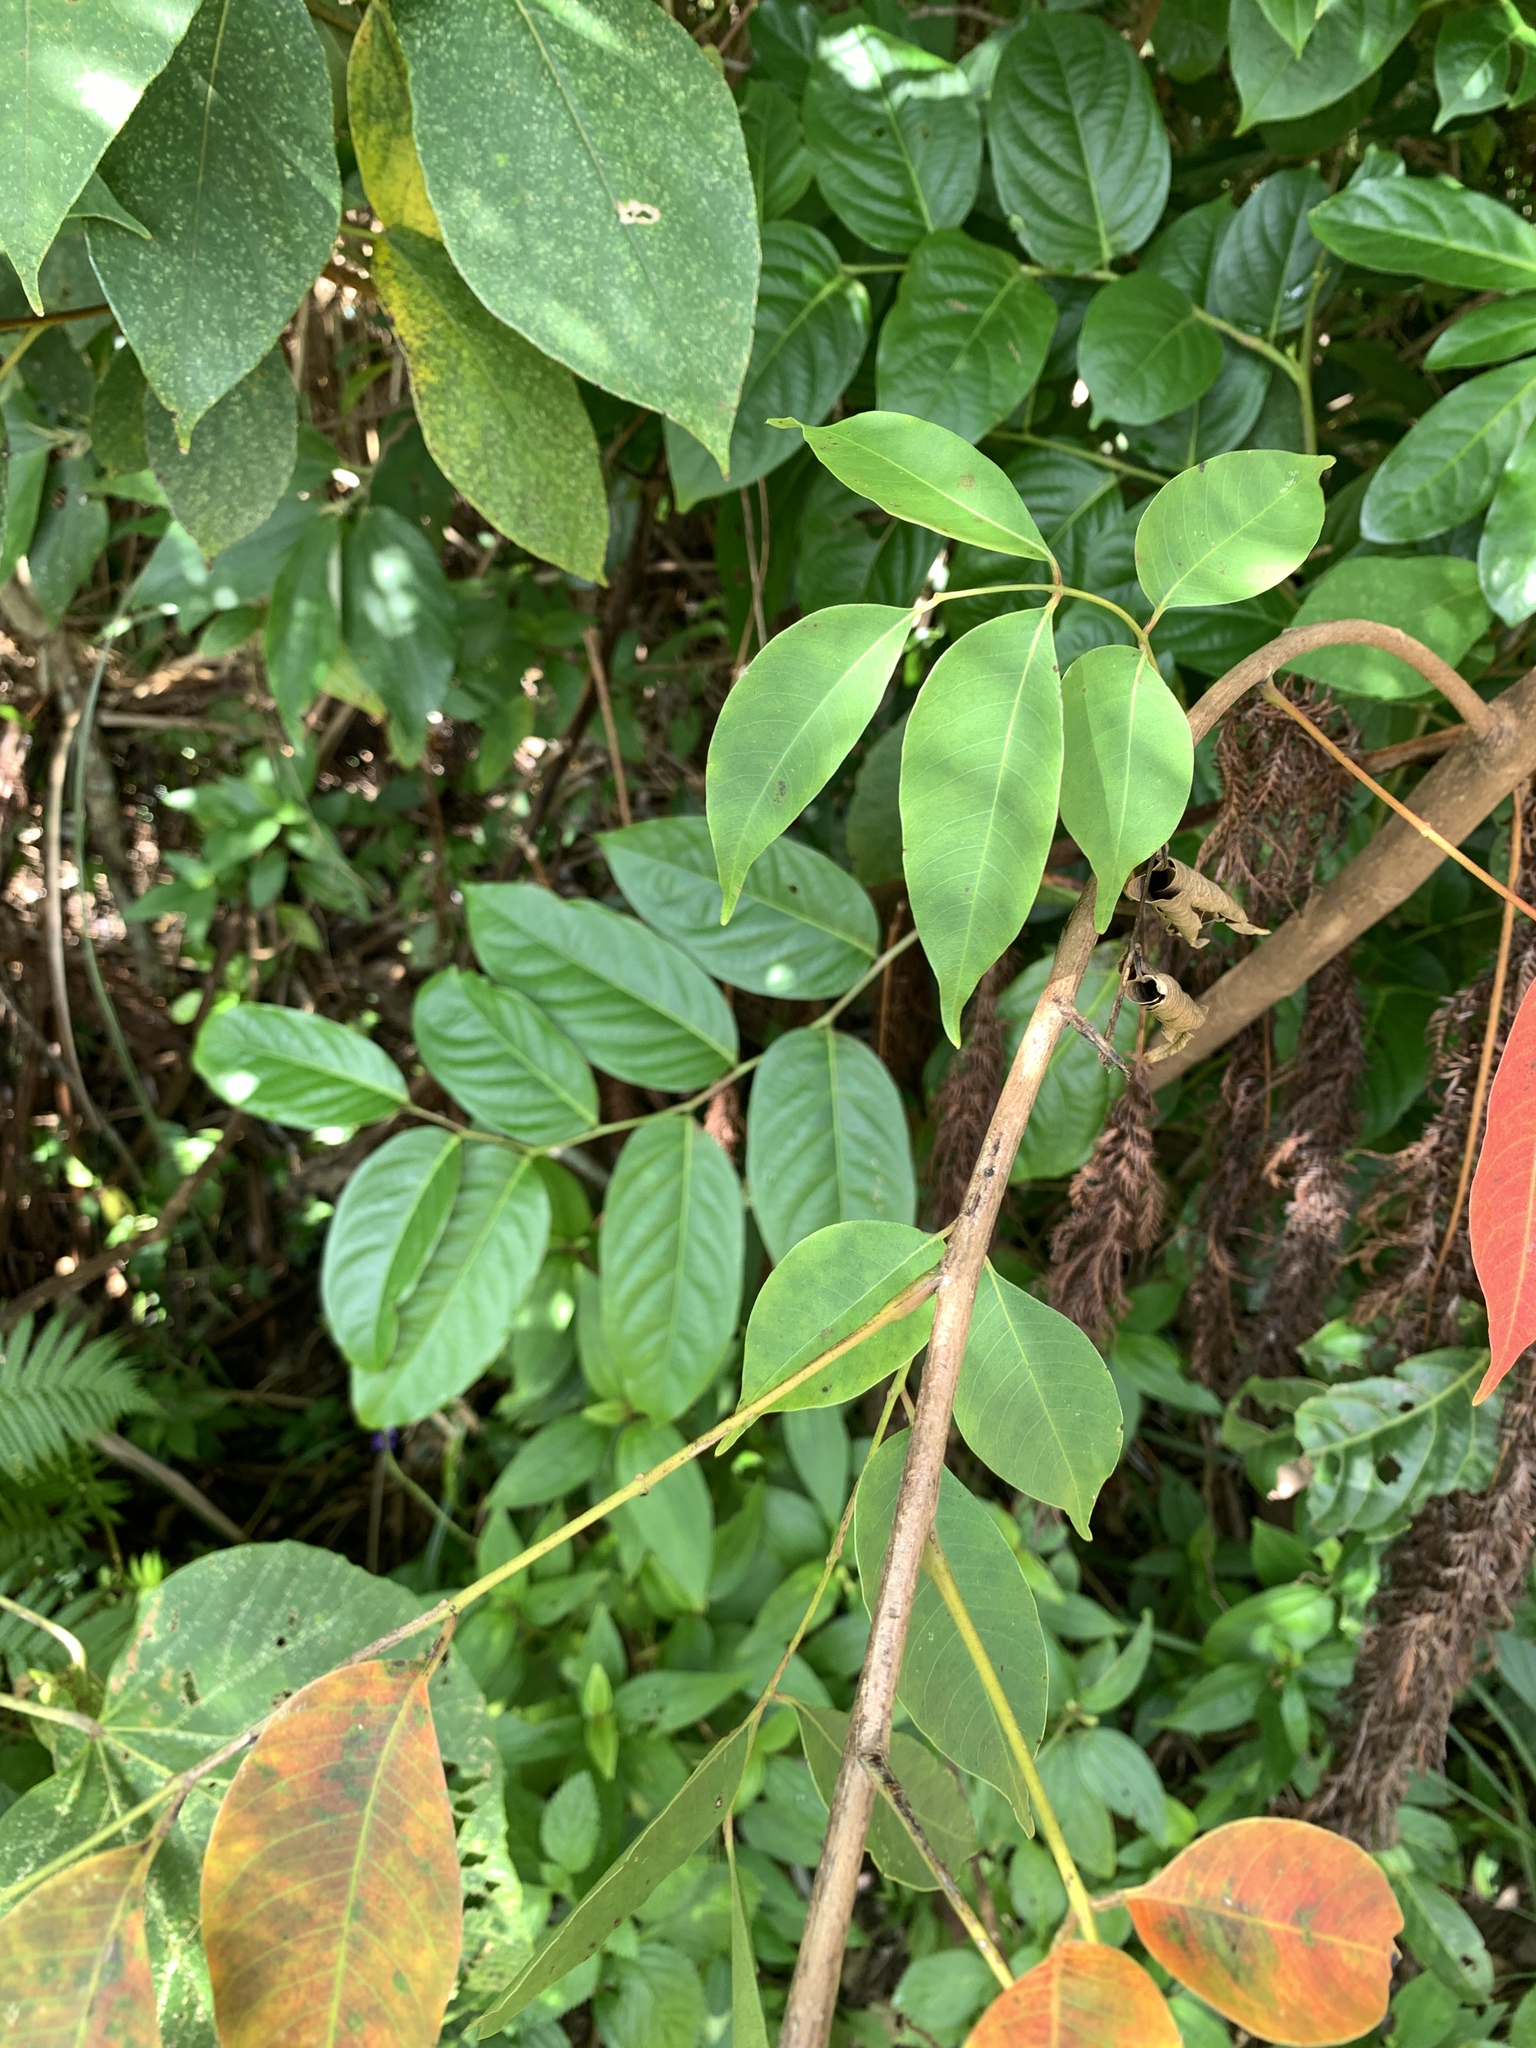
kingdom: Plantae
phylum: Tracheophyta
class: Magnoliopsida
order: Sapindales
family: Anacardiaceae
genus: Toxicodendron
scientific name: Toxicodendron succedaneum
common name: Wax tree
